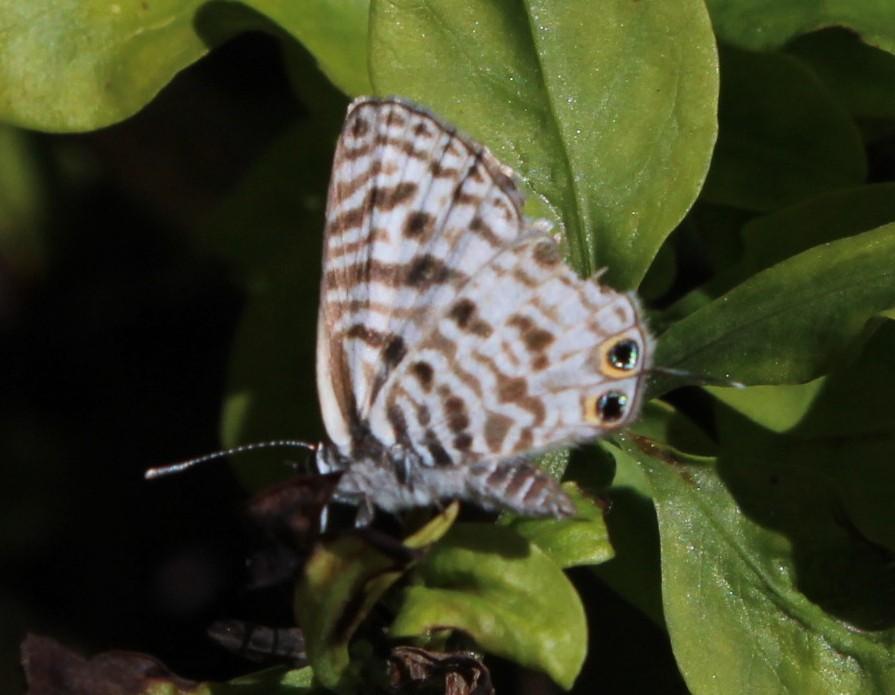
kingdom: Animalia
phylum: Arthropoda
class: Insecta
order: Lepidoptera
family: Lycaenidae
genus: Leptotes
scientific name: Leptotes
